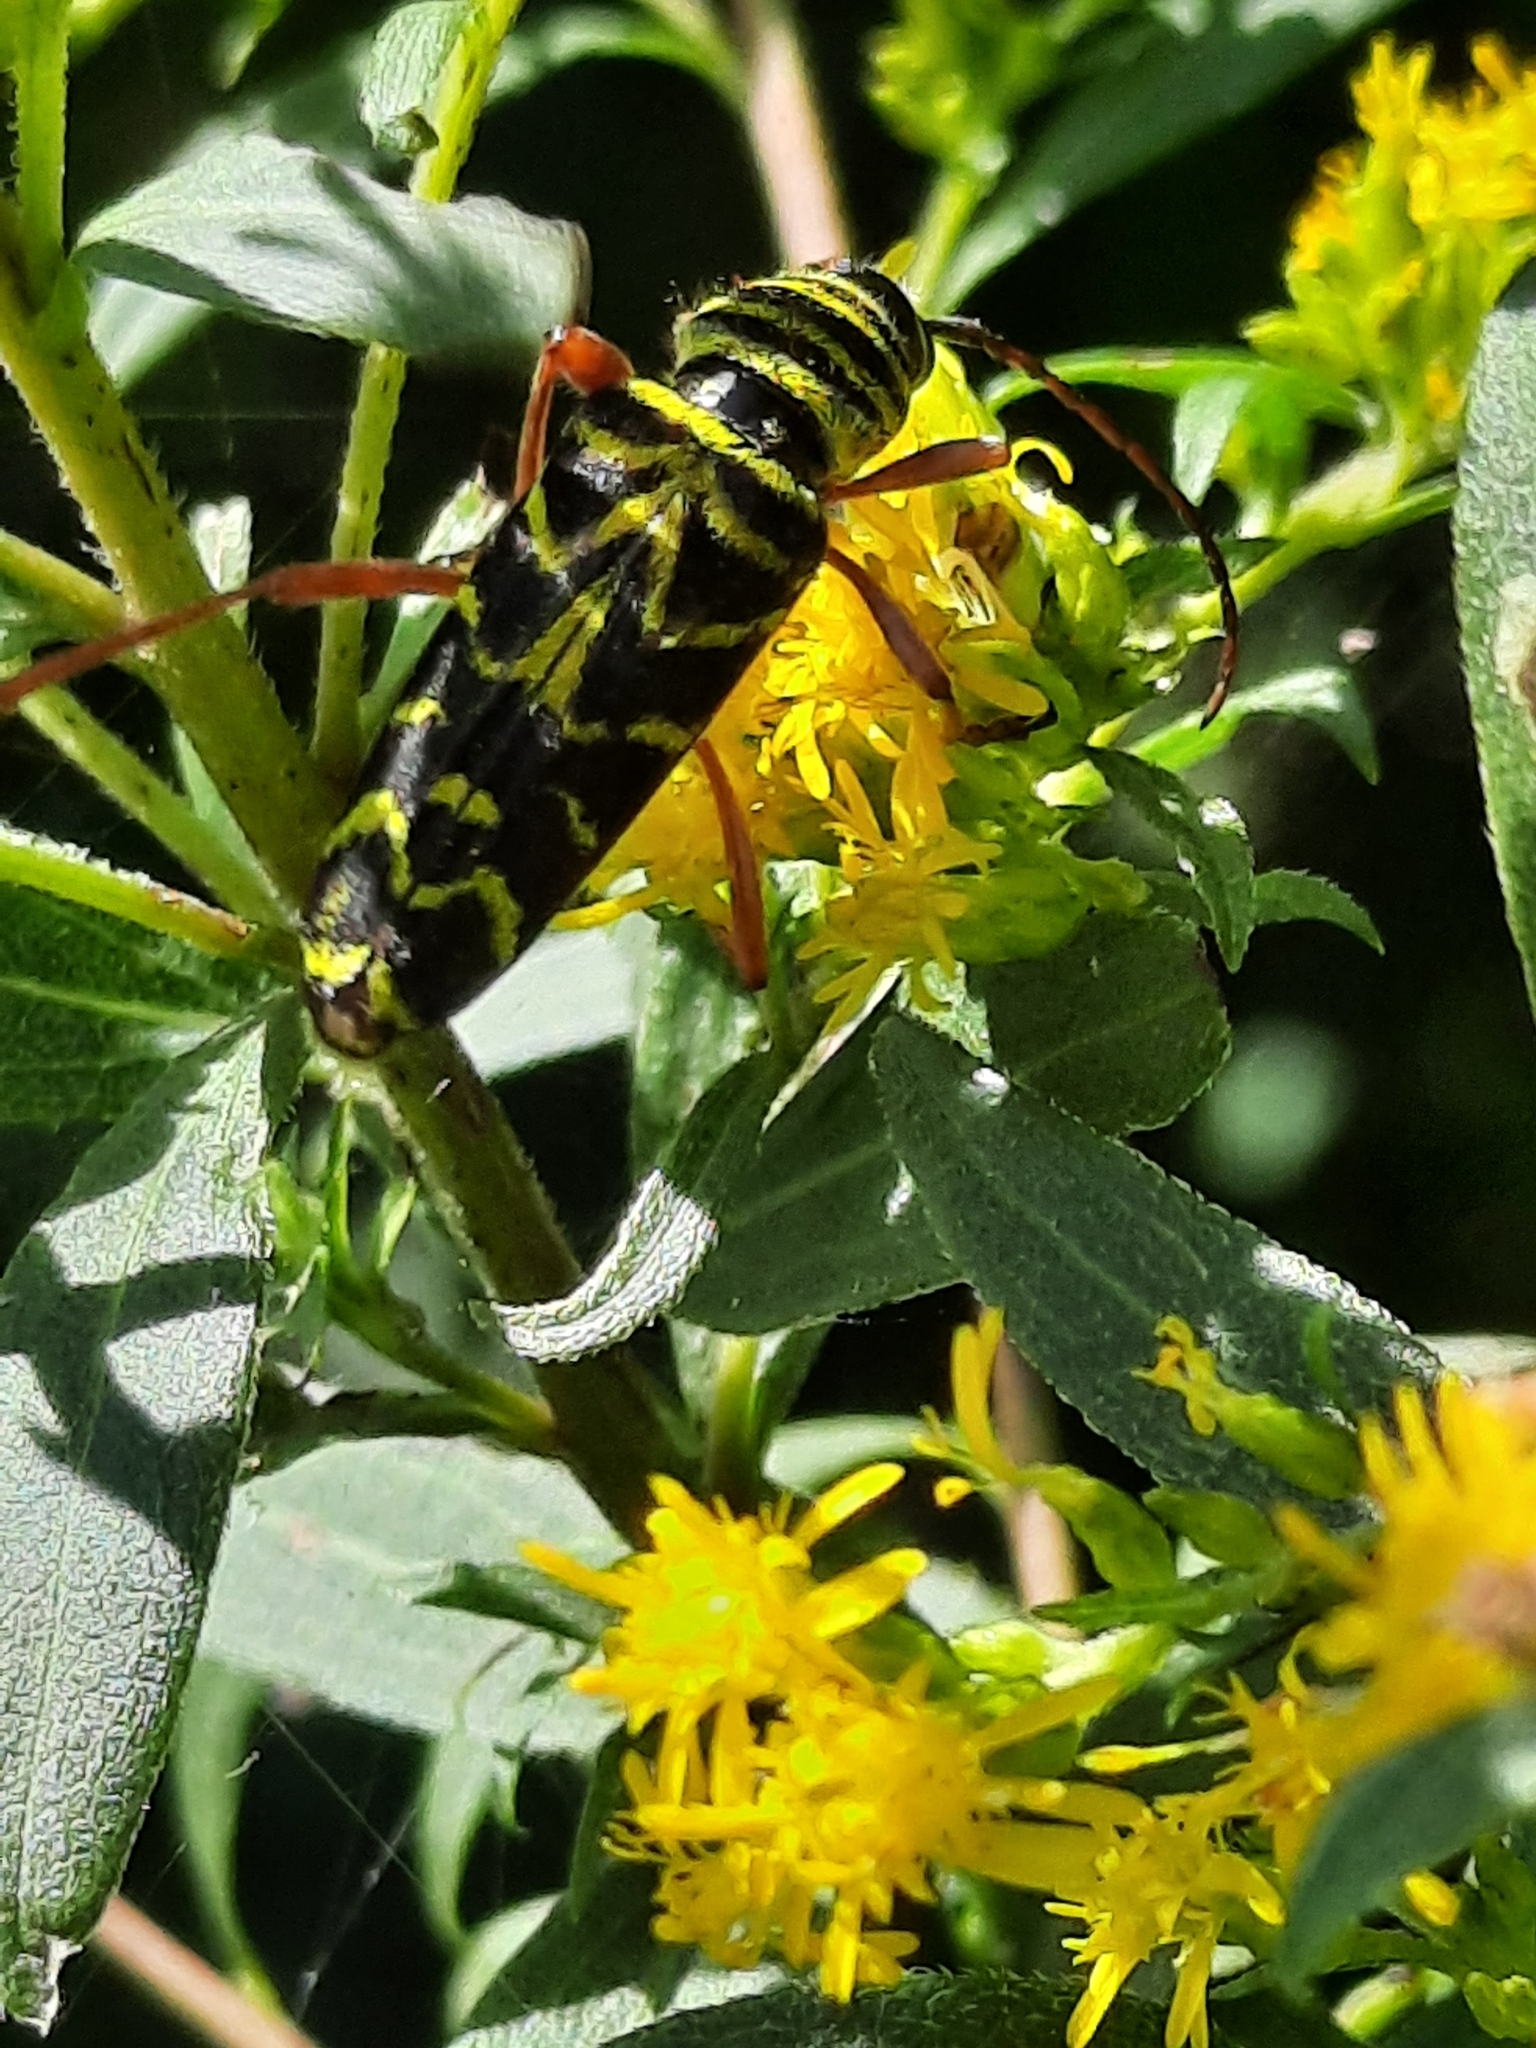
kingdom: Animalia
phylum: Arthropoda
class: Insecta
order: Coleoptera
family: Cerambycidae
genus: Megacyllene
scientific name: Megacyllene robiniae
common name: Locust borer
